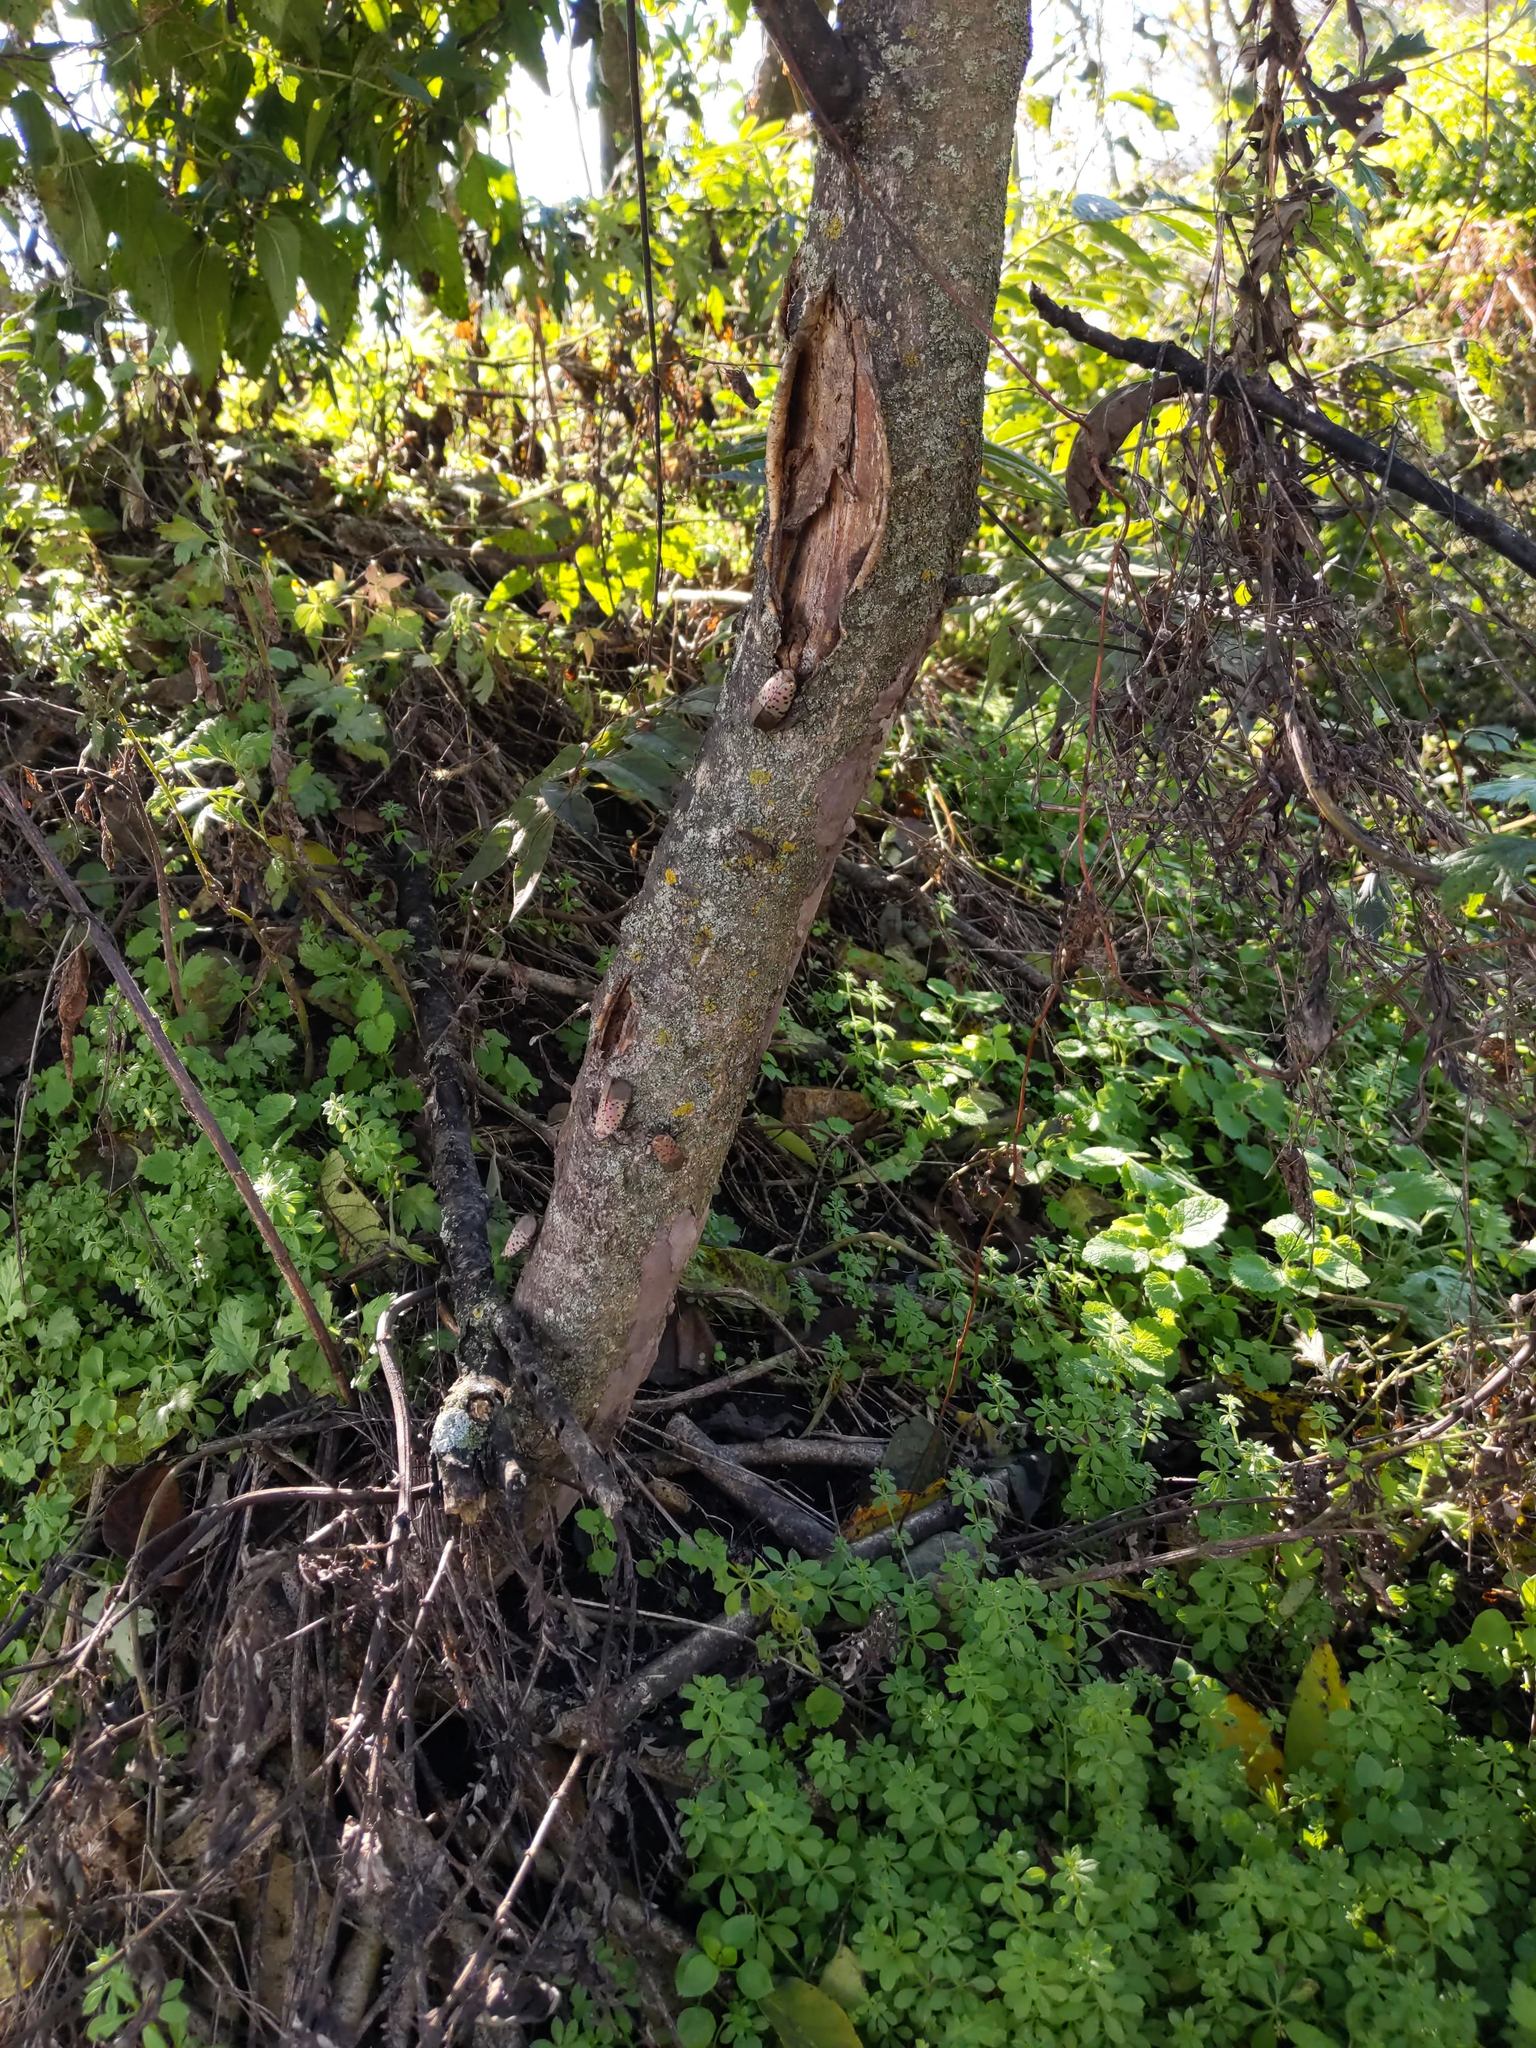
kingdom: Animalia
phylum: Arthropoda
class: Insecta
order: Hemiptera
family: Fulgoridae
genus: Lycorma
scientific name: Lycorma delicatula
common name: Spotted lanternfly
